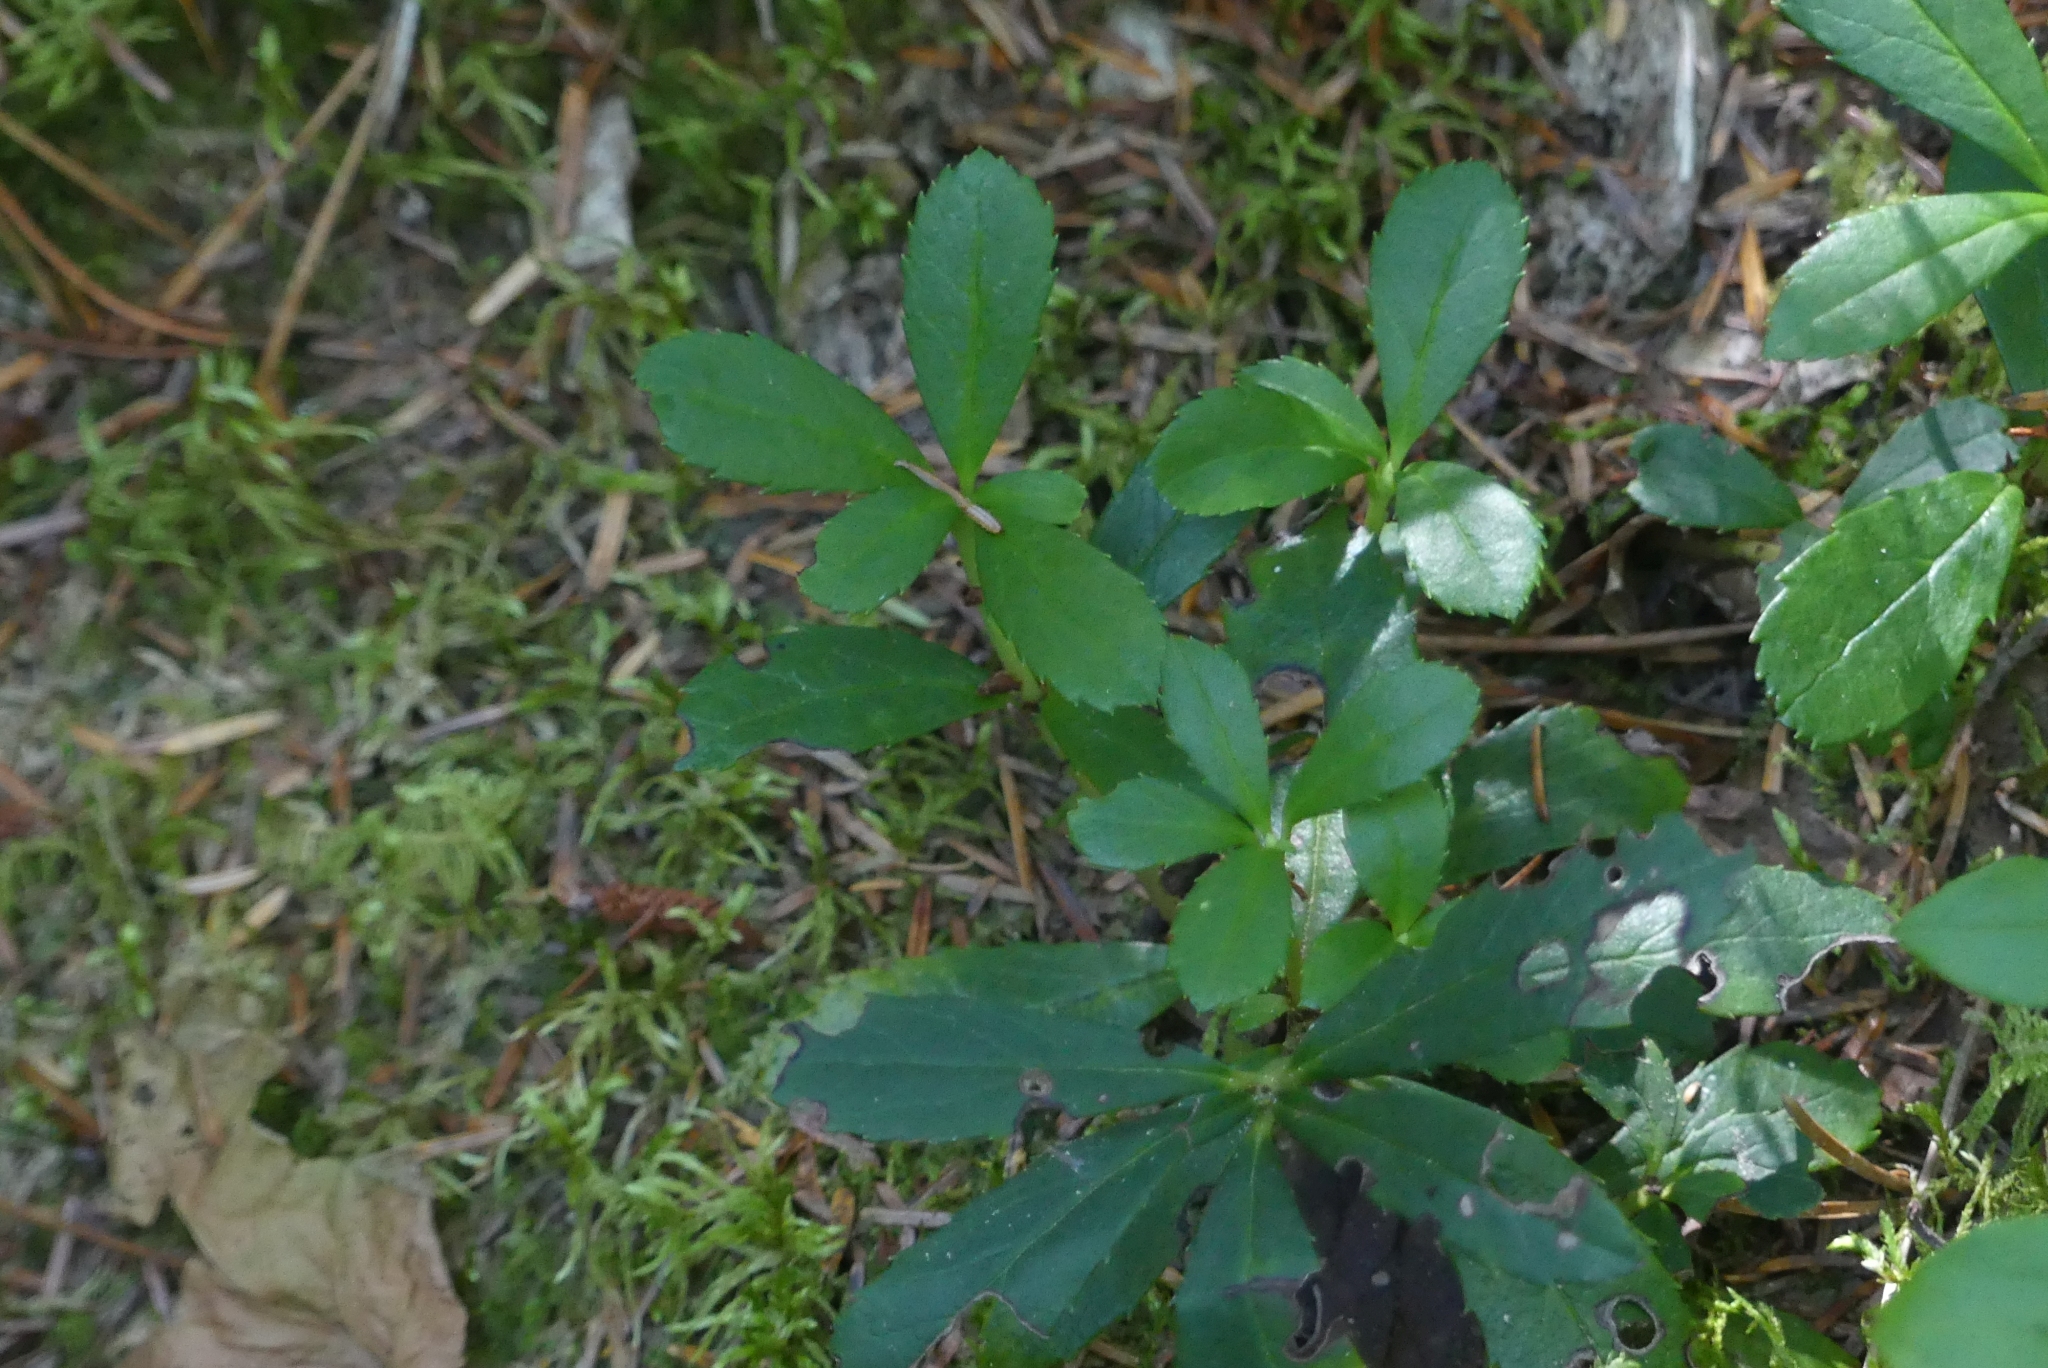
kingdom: Plantae
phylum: Tracheophyta
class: Magnoliopsida
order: Ericales
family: Ericaceae
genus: Chimaphila
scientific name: Chimaphila umbellata
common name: Pipsissewa
